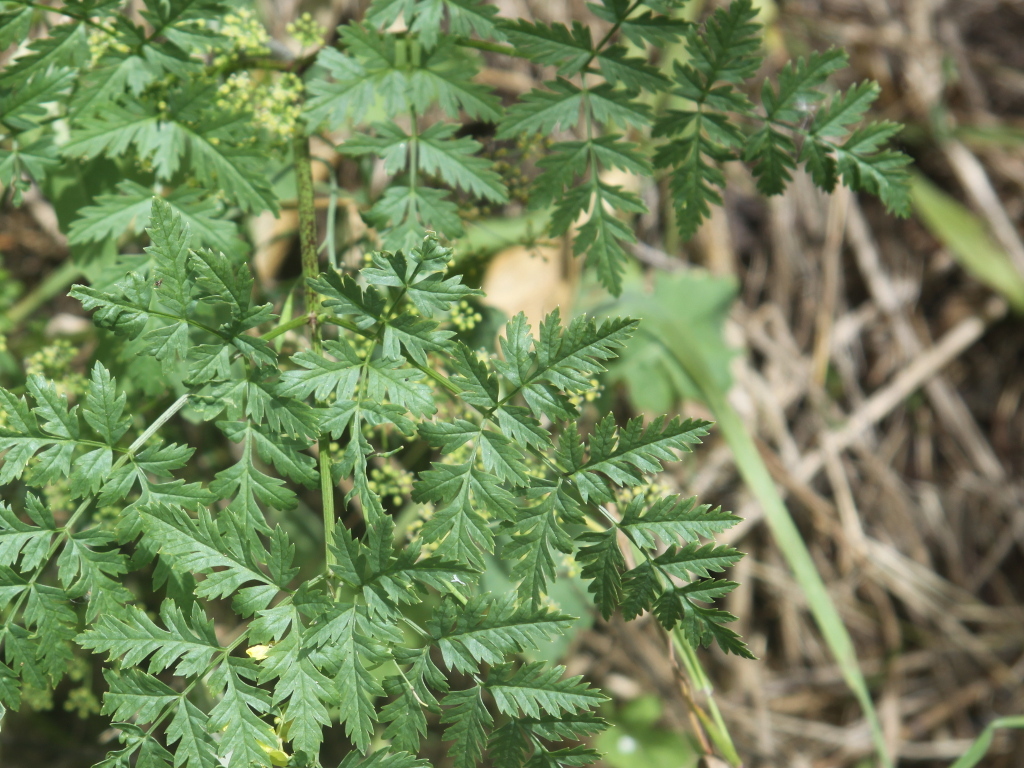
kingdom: Plantae
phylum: Tracheophyta
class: Magnoliopsida
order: Apiales
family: Apiaceae
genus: Conium
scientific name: Conium maculatum
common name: Hemlock
